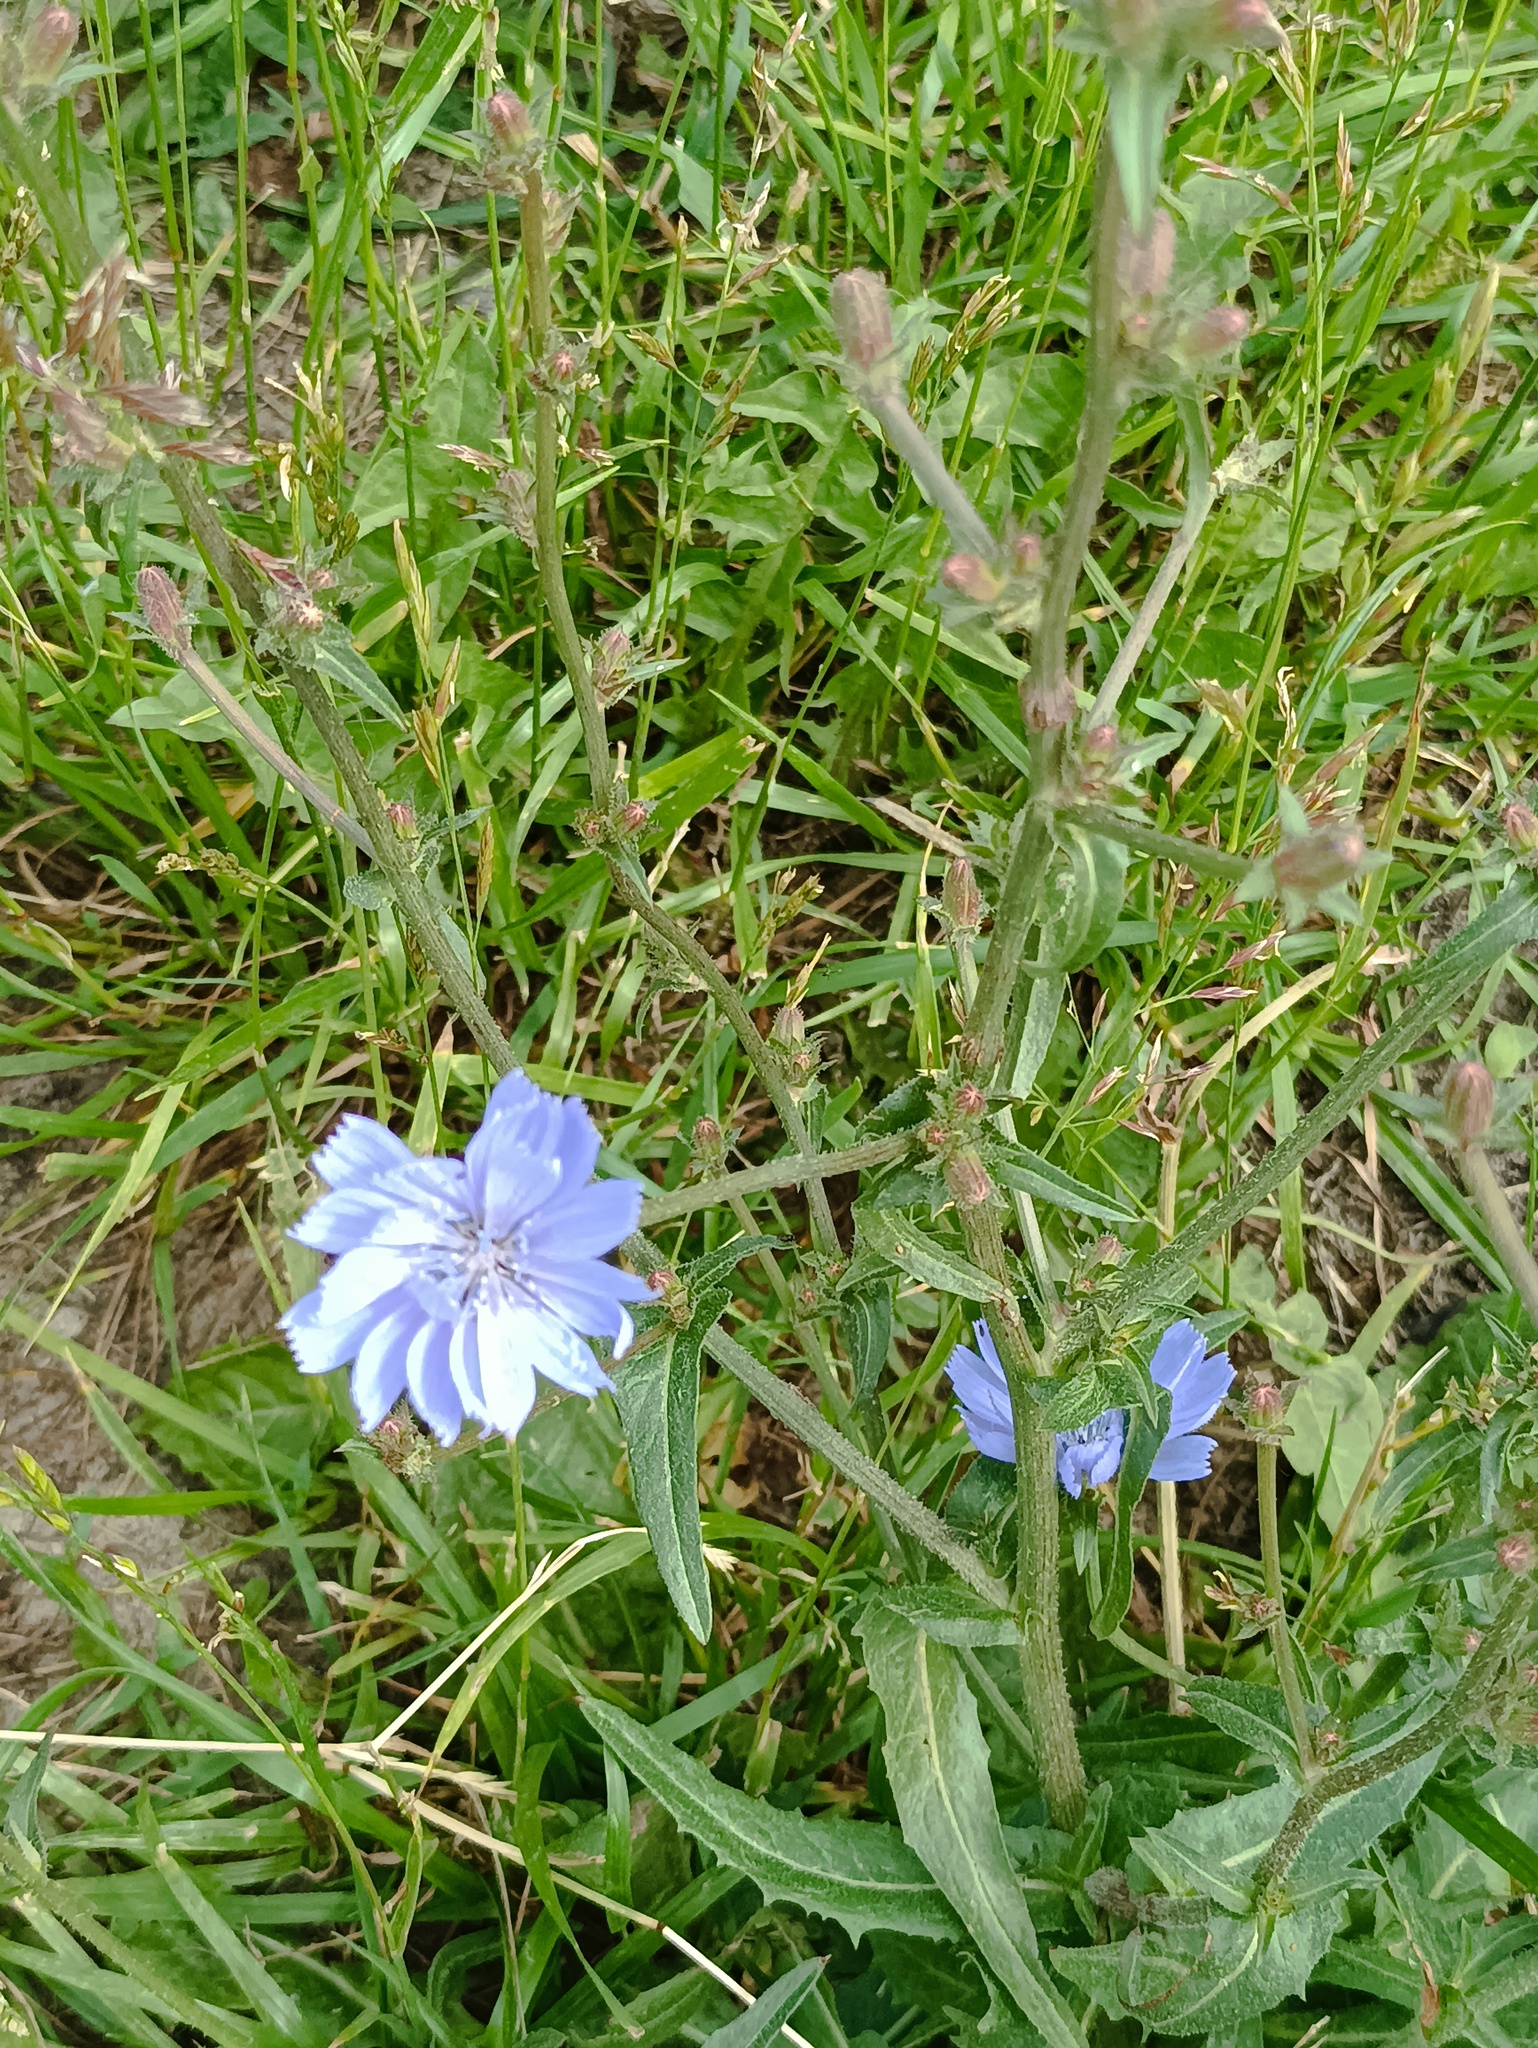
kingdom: Plantae
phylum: Tracheophyta
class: Magnoliopsida
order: Asterales
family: Asteraceae
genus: Cichorium
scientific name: Cichorium intybus
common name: Chicory
